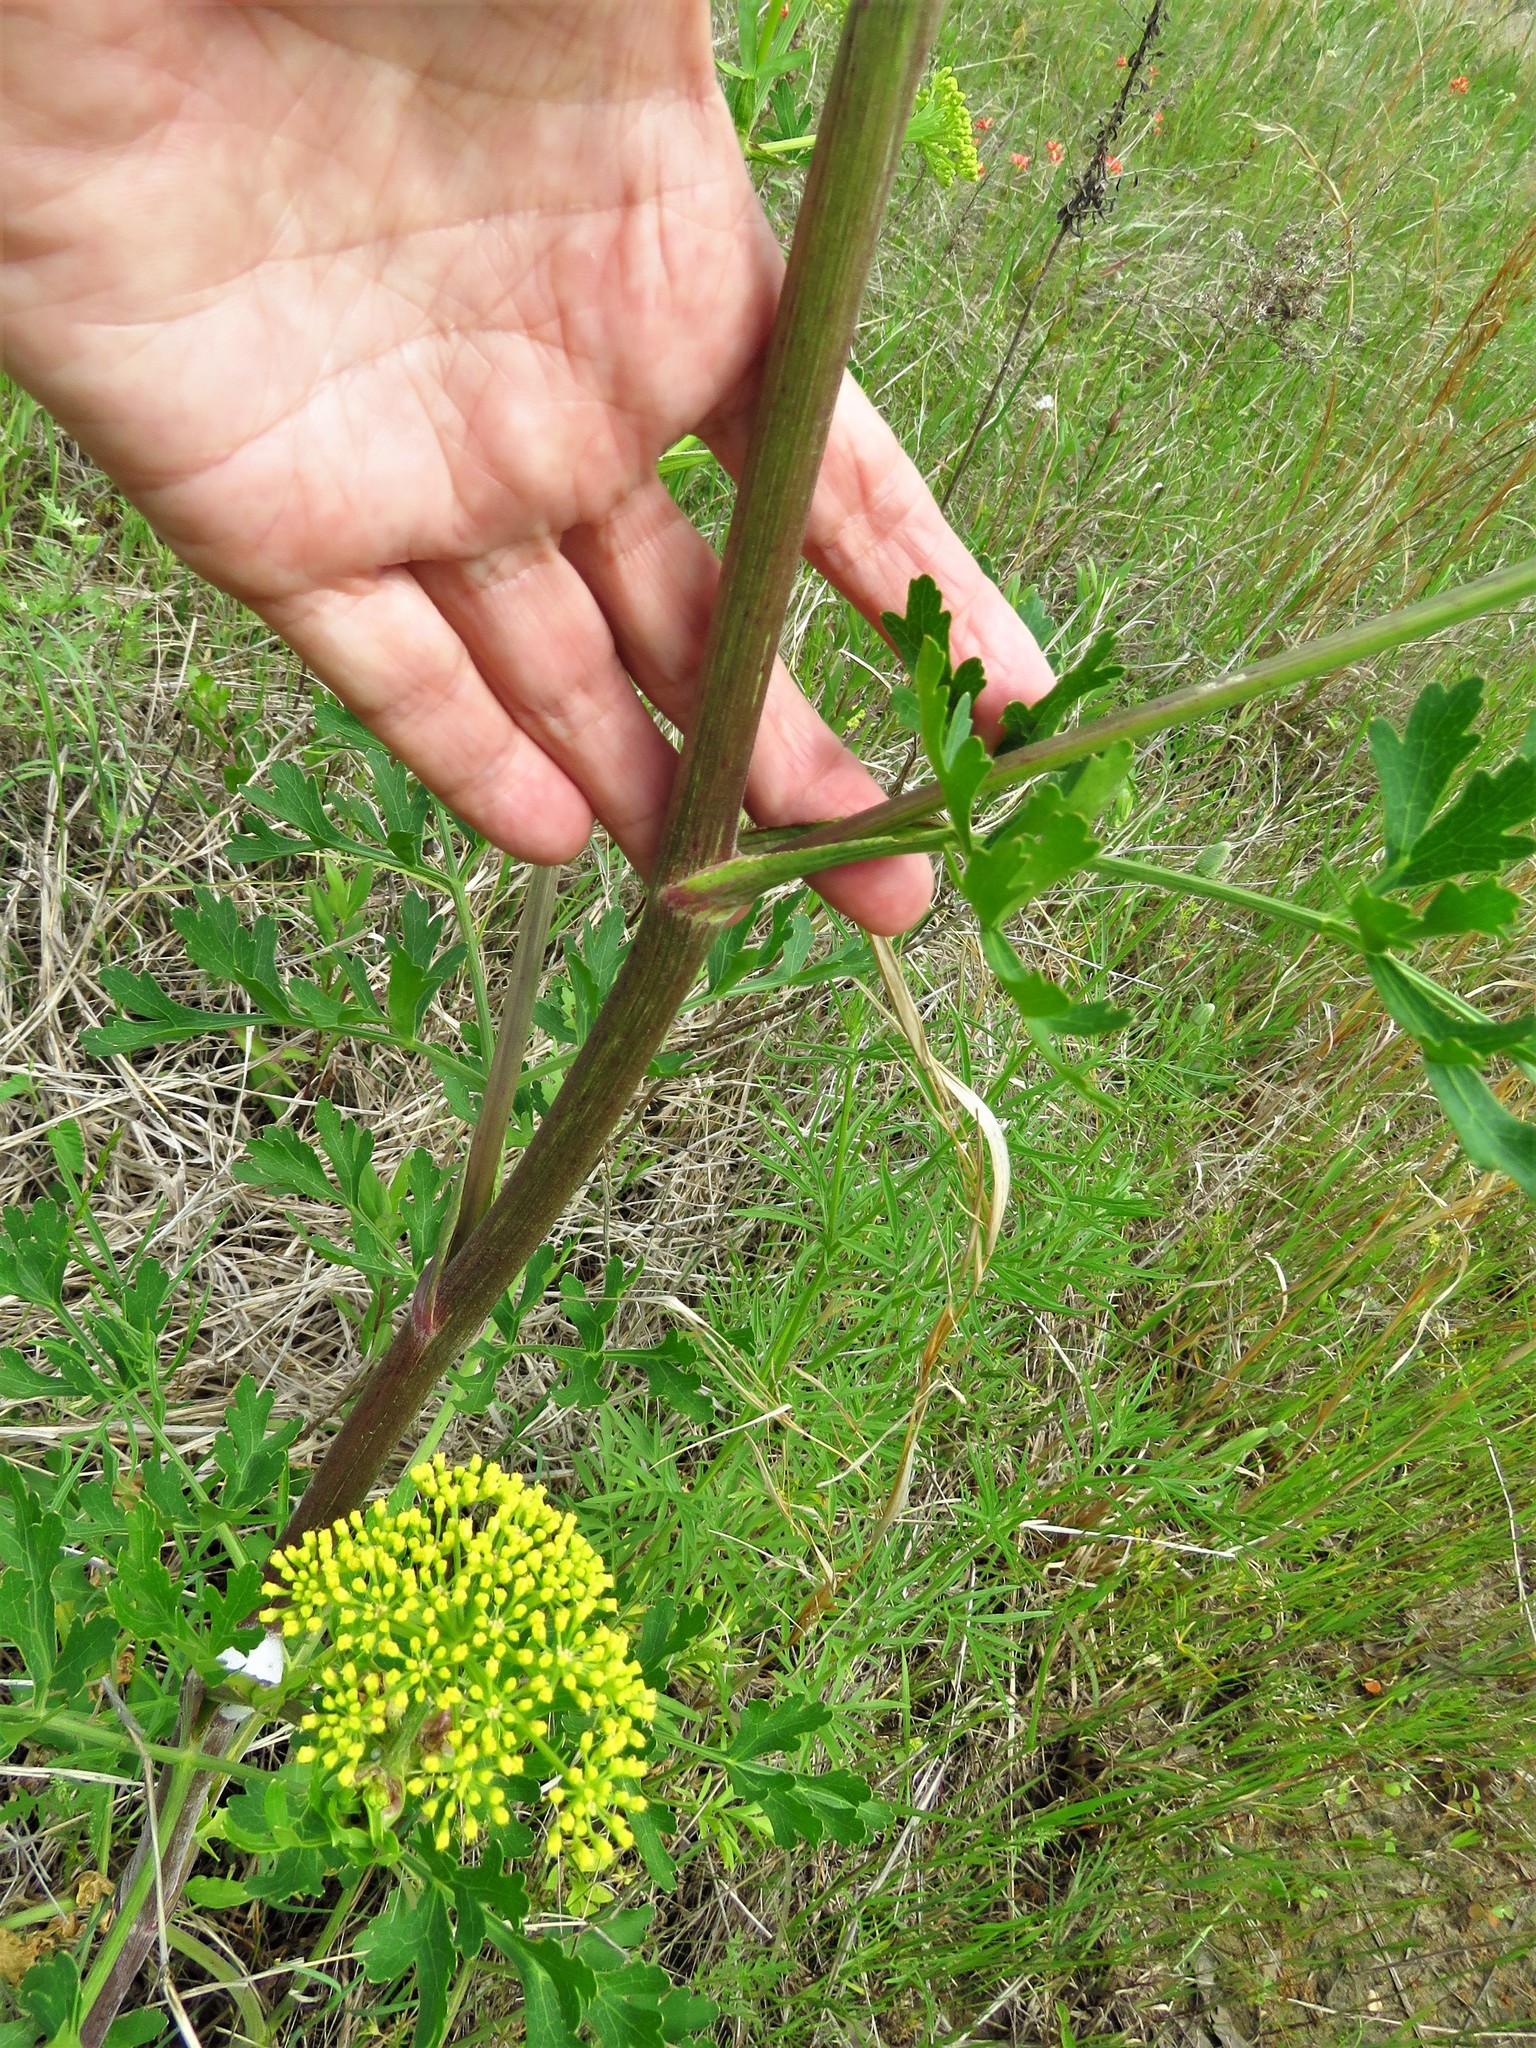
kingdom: Plantae
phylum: Tracheophyta
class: Magnoliopsida
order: Apiales
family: Apiaceae
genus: Polytaenia
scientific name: Polytaenia texana
